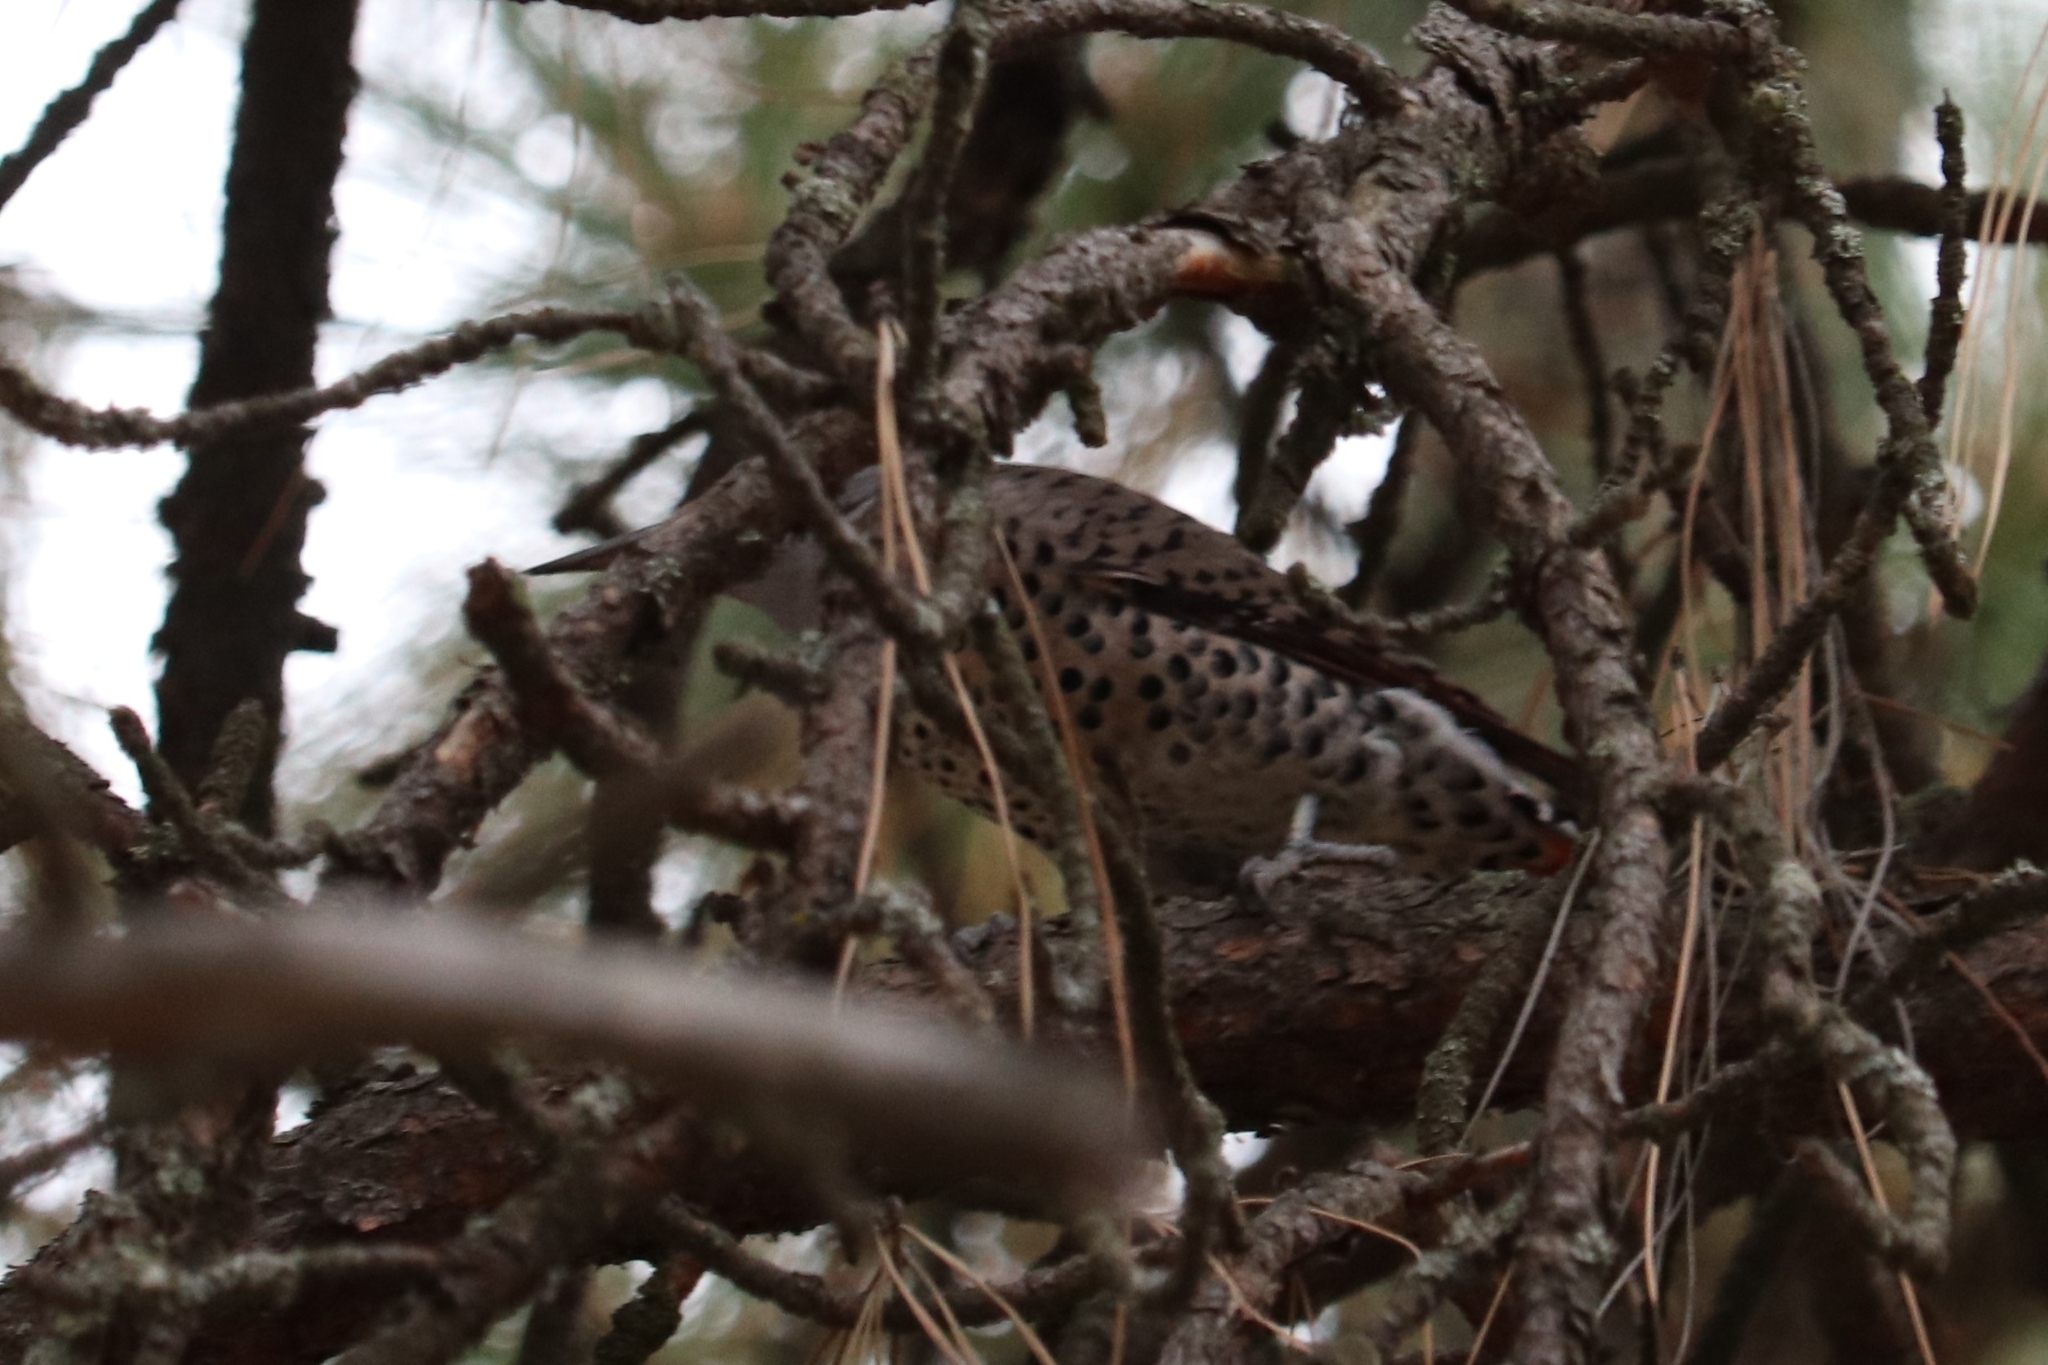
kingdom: Animalia
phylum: Chordata
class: Aves
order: Piciformes
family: Picidae
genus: Colaptes
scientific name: Colaptes auratus
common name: Northern flicker
